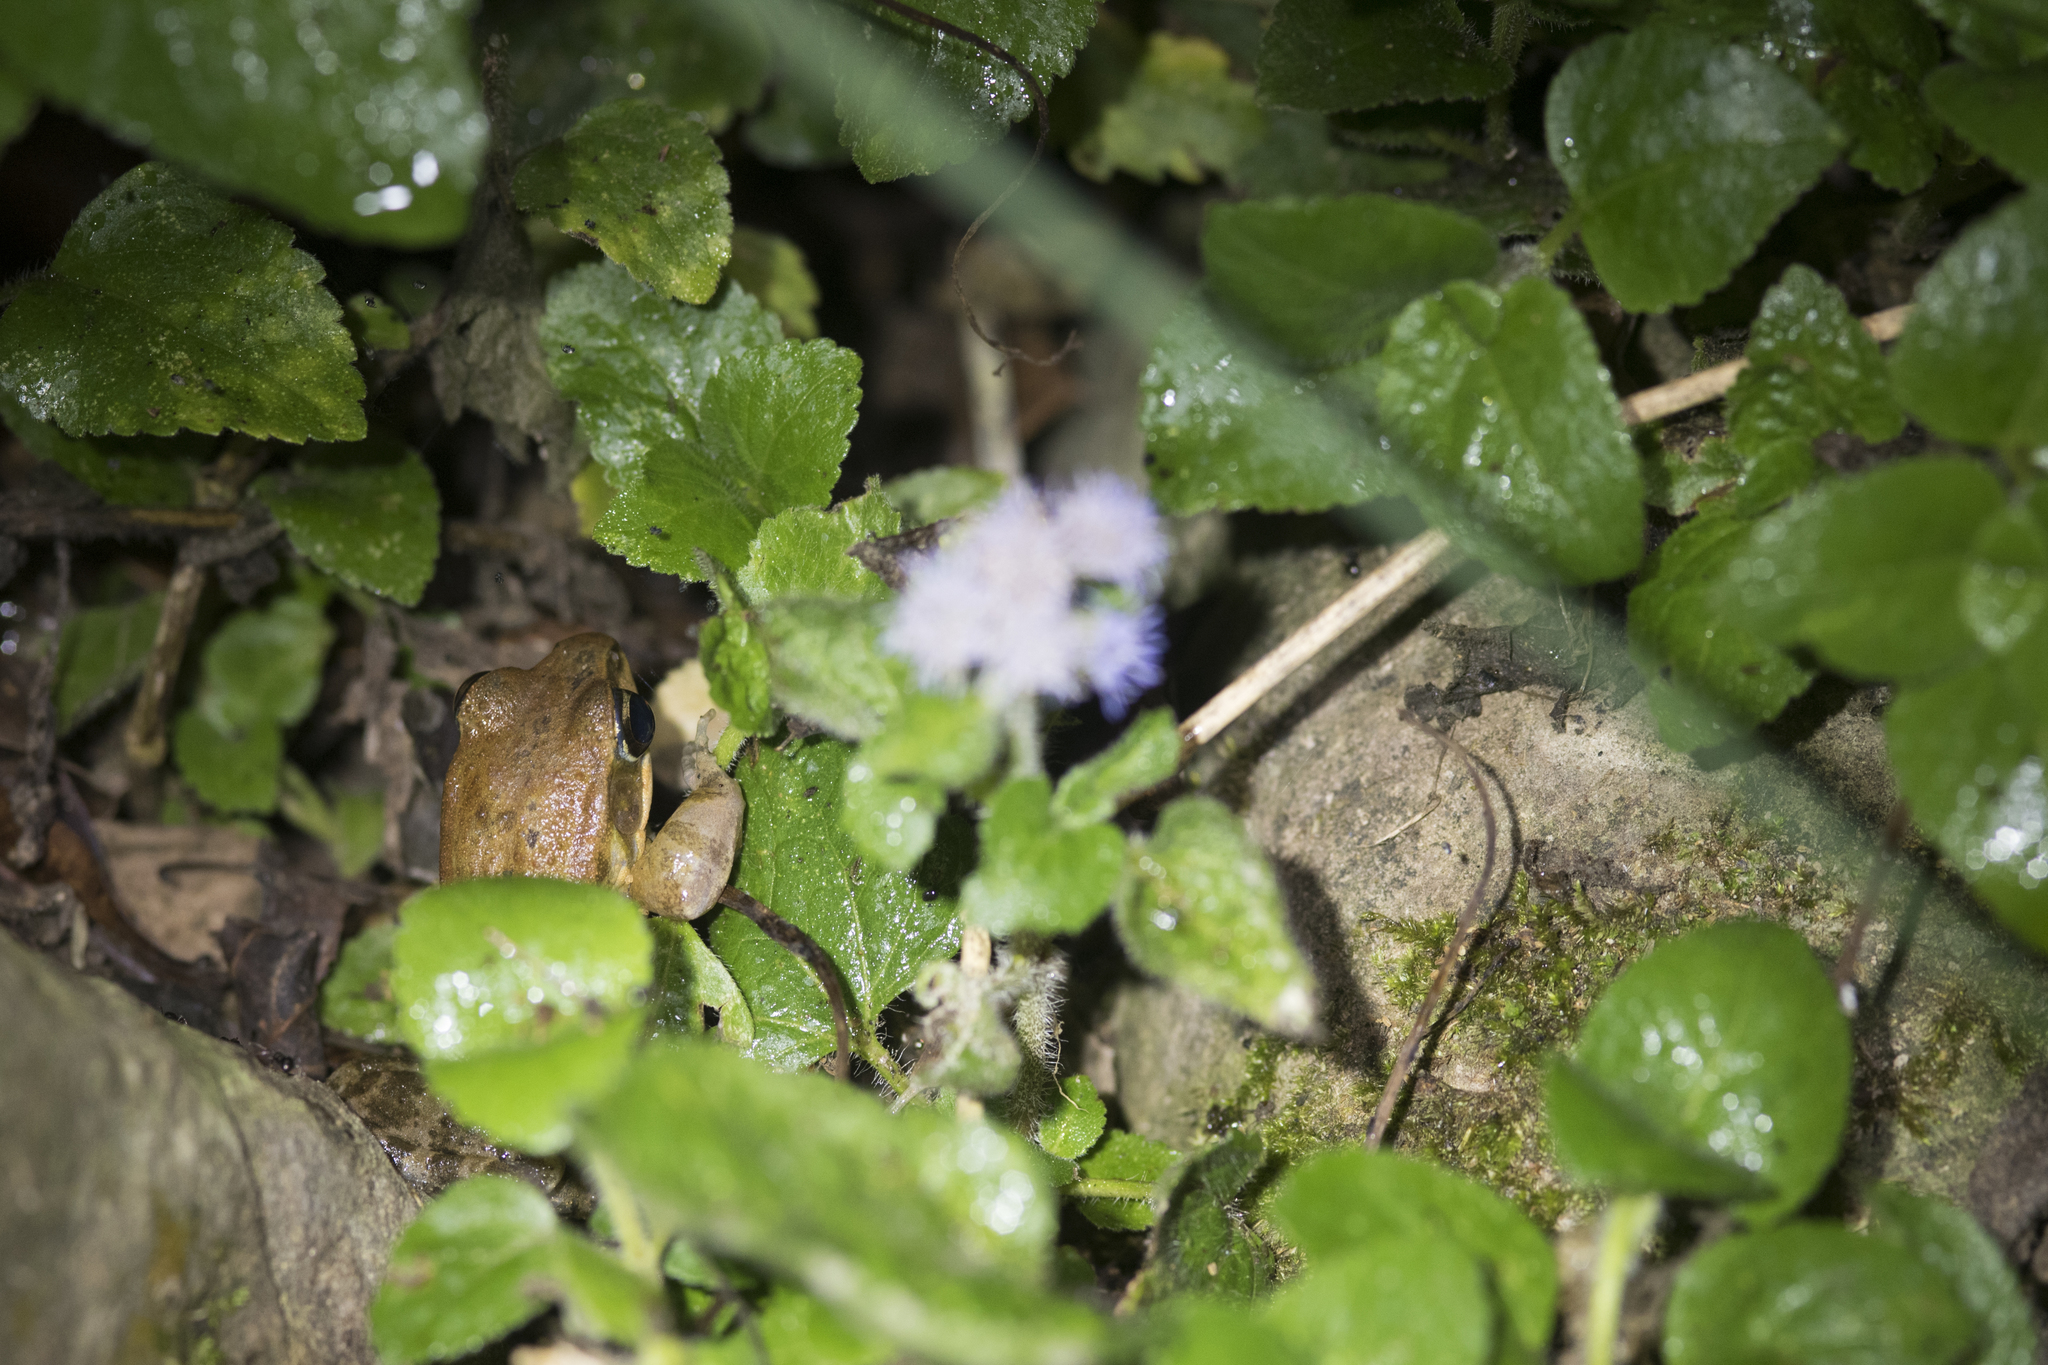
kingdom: Animalia
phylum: Chordata
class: Amphibia
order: Anura
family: Ranidae
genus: Hylarana
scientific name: Hylarana latouchii
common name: Broad-folded frog
